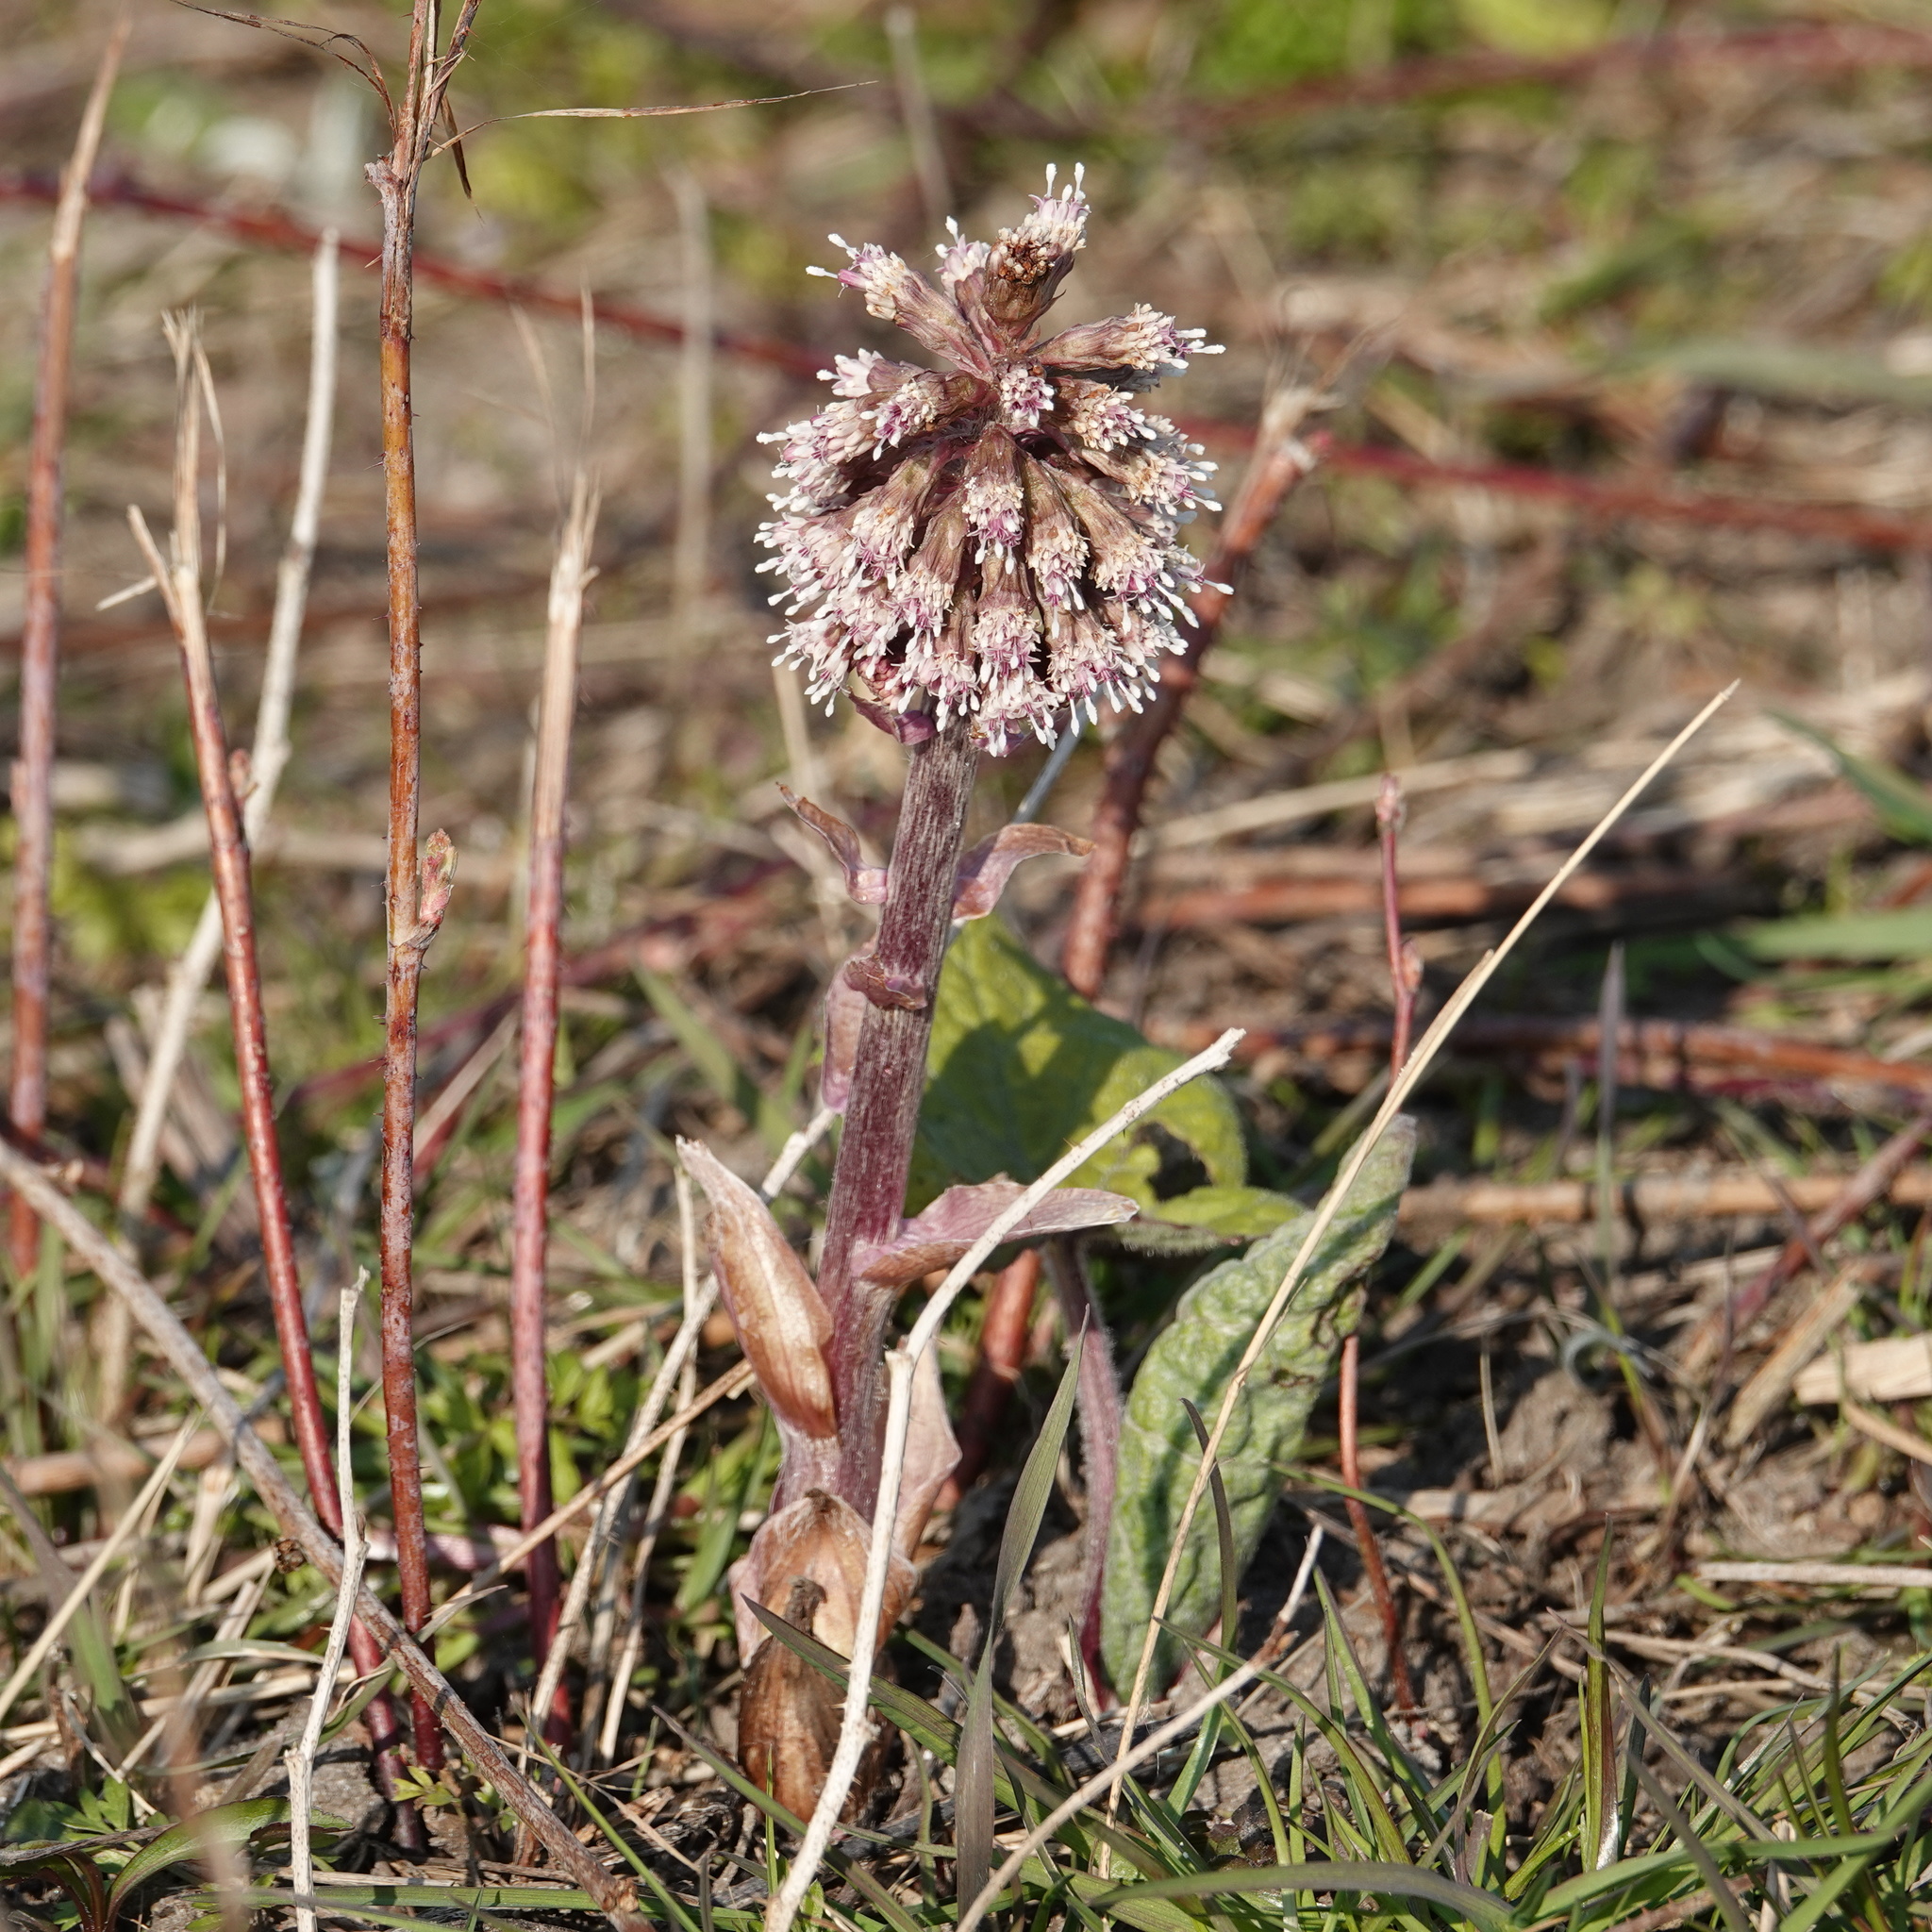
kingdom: Plantae
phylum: Tracheophyta
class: Magnoliopsida
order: Asterales
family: Asteraceae
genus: Petasites
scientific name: Petasites hybridus
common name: Butterbur
